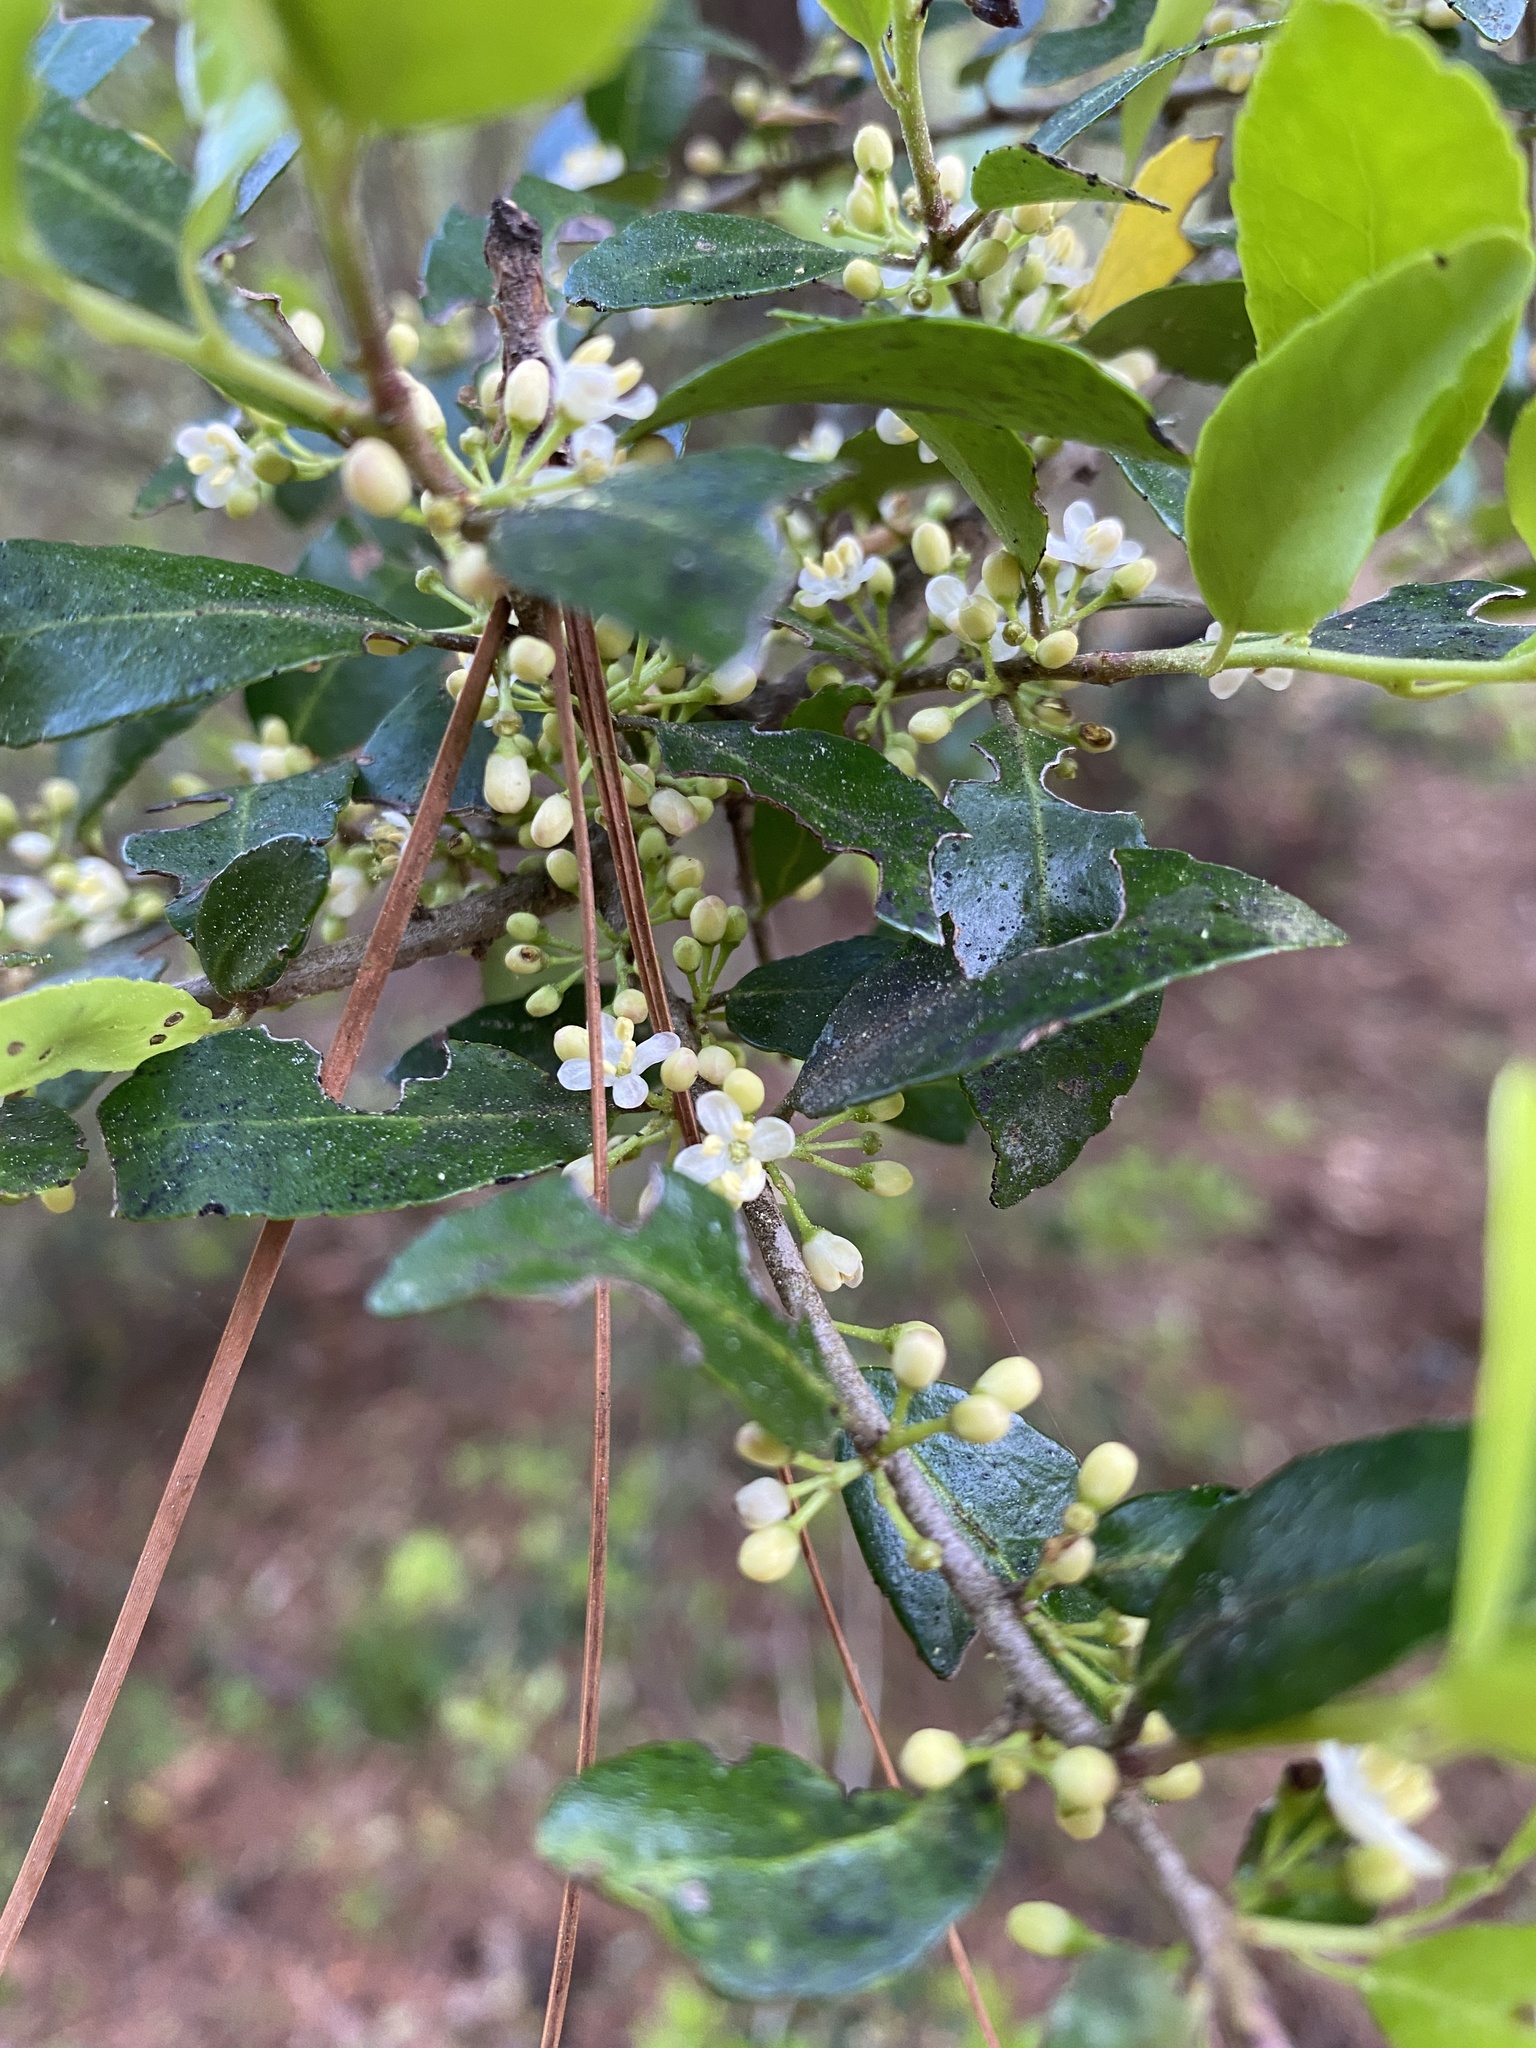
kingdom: Plantae
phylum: Tracheophyta
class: Magnoliopsida
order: Aquifoliales
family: Aquifoliaceae
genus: Ilex
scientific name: Ilex vomitoria
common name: Yaupon holly
